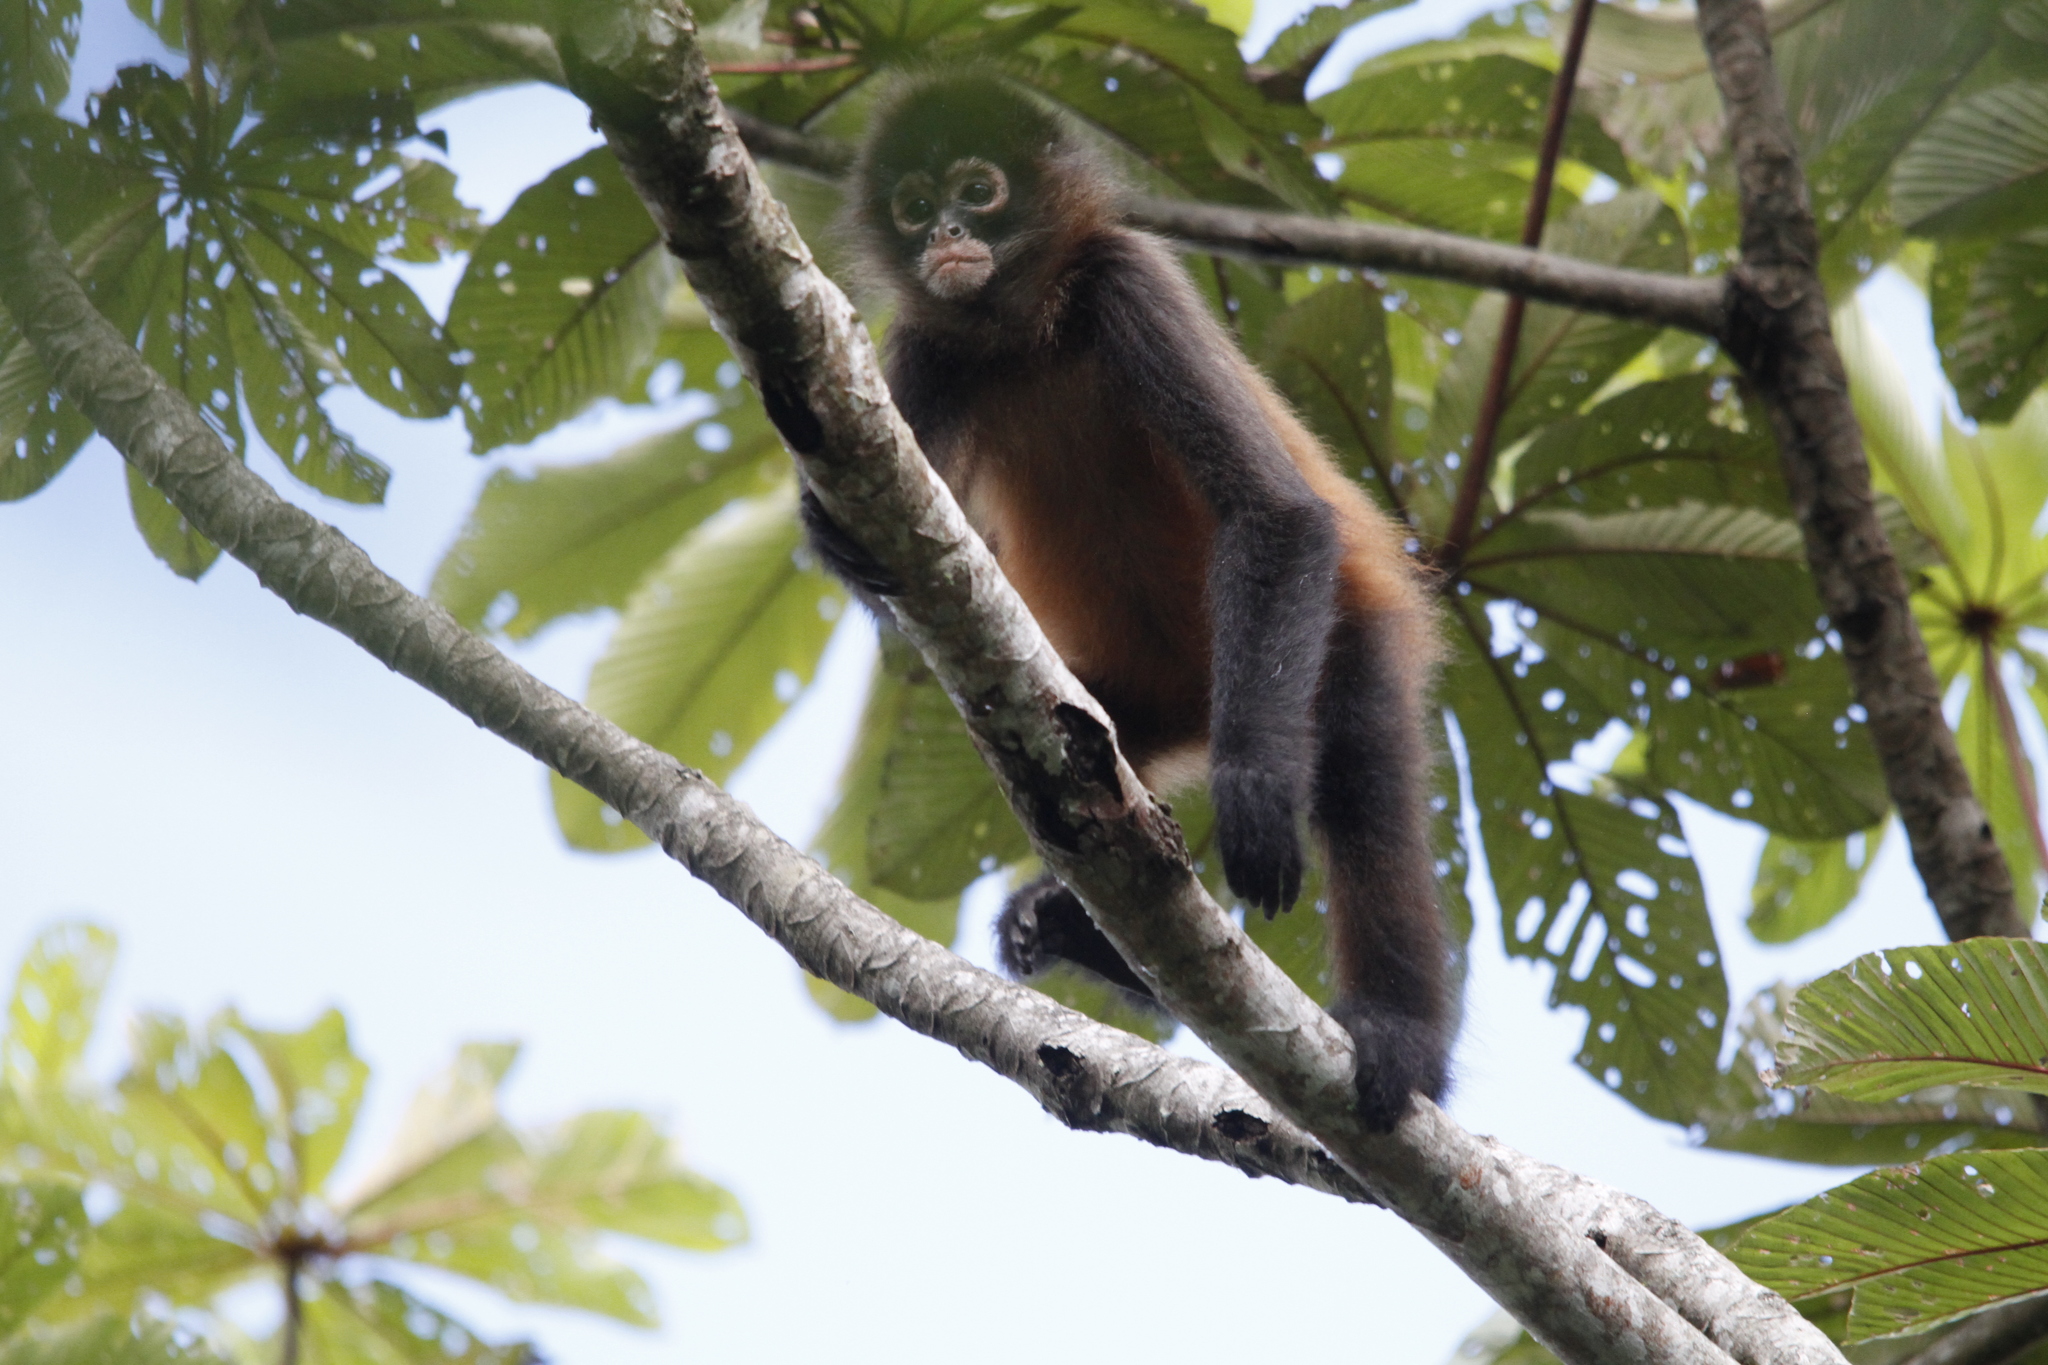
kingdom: Animalia
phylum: Chordata
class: Mammalia
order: Primates
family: Atelidae
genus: Ateles
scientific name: Ateles geoffroyi
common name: Black-handed spider monkey
